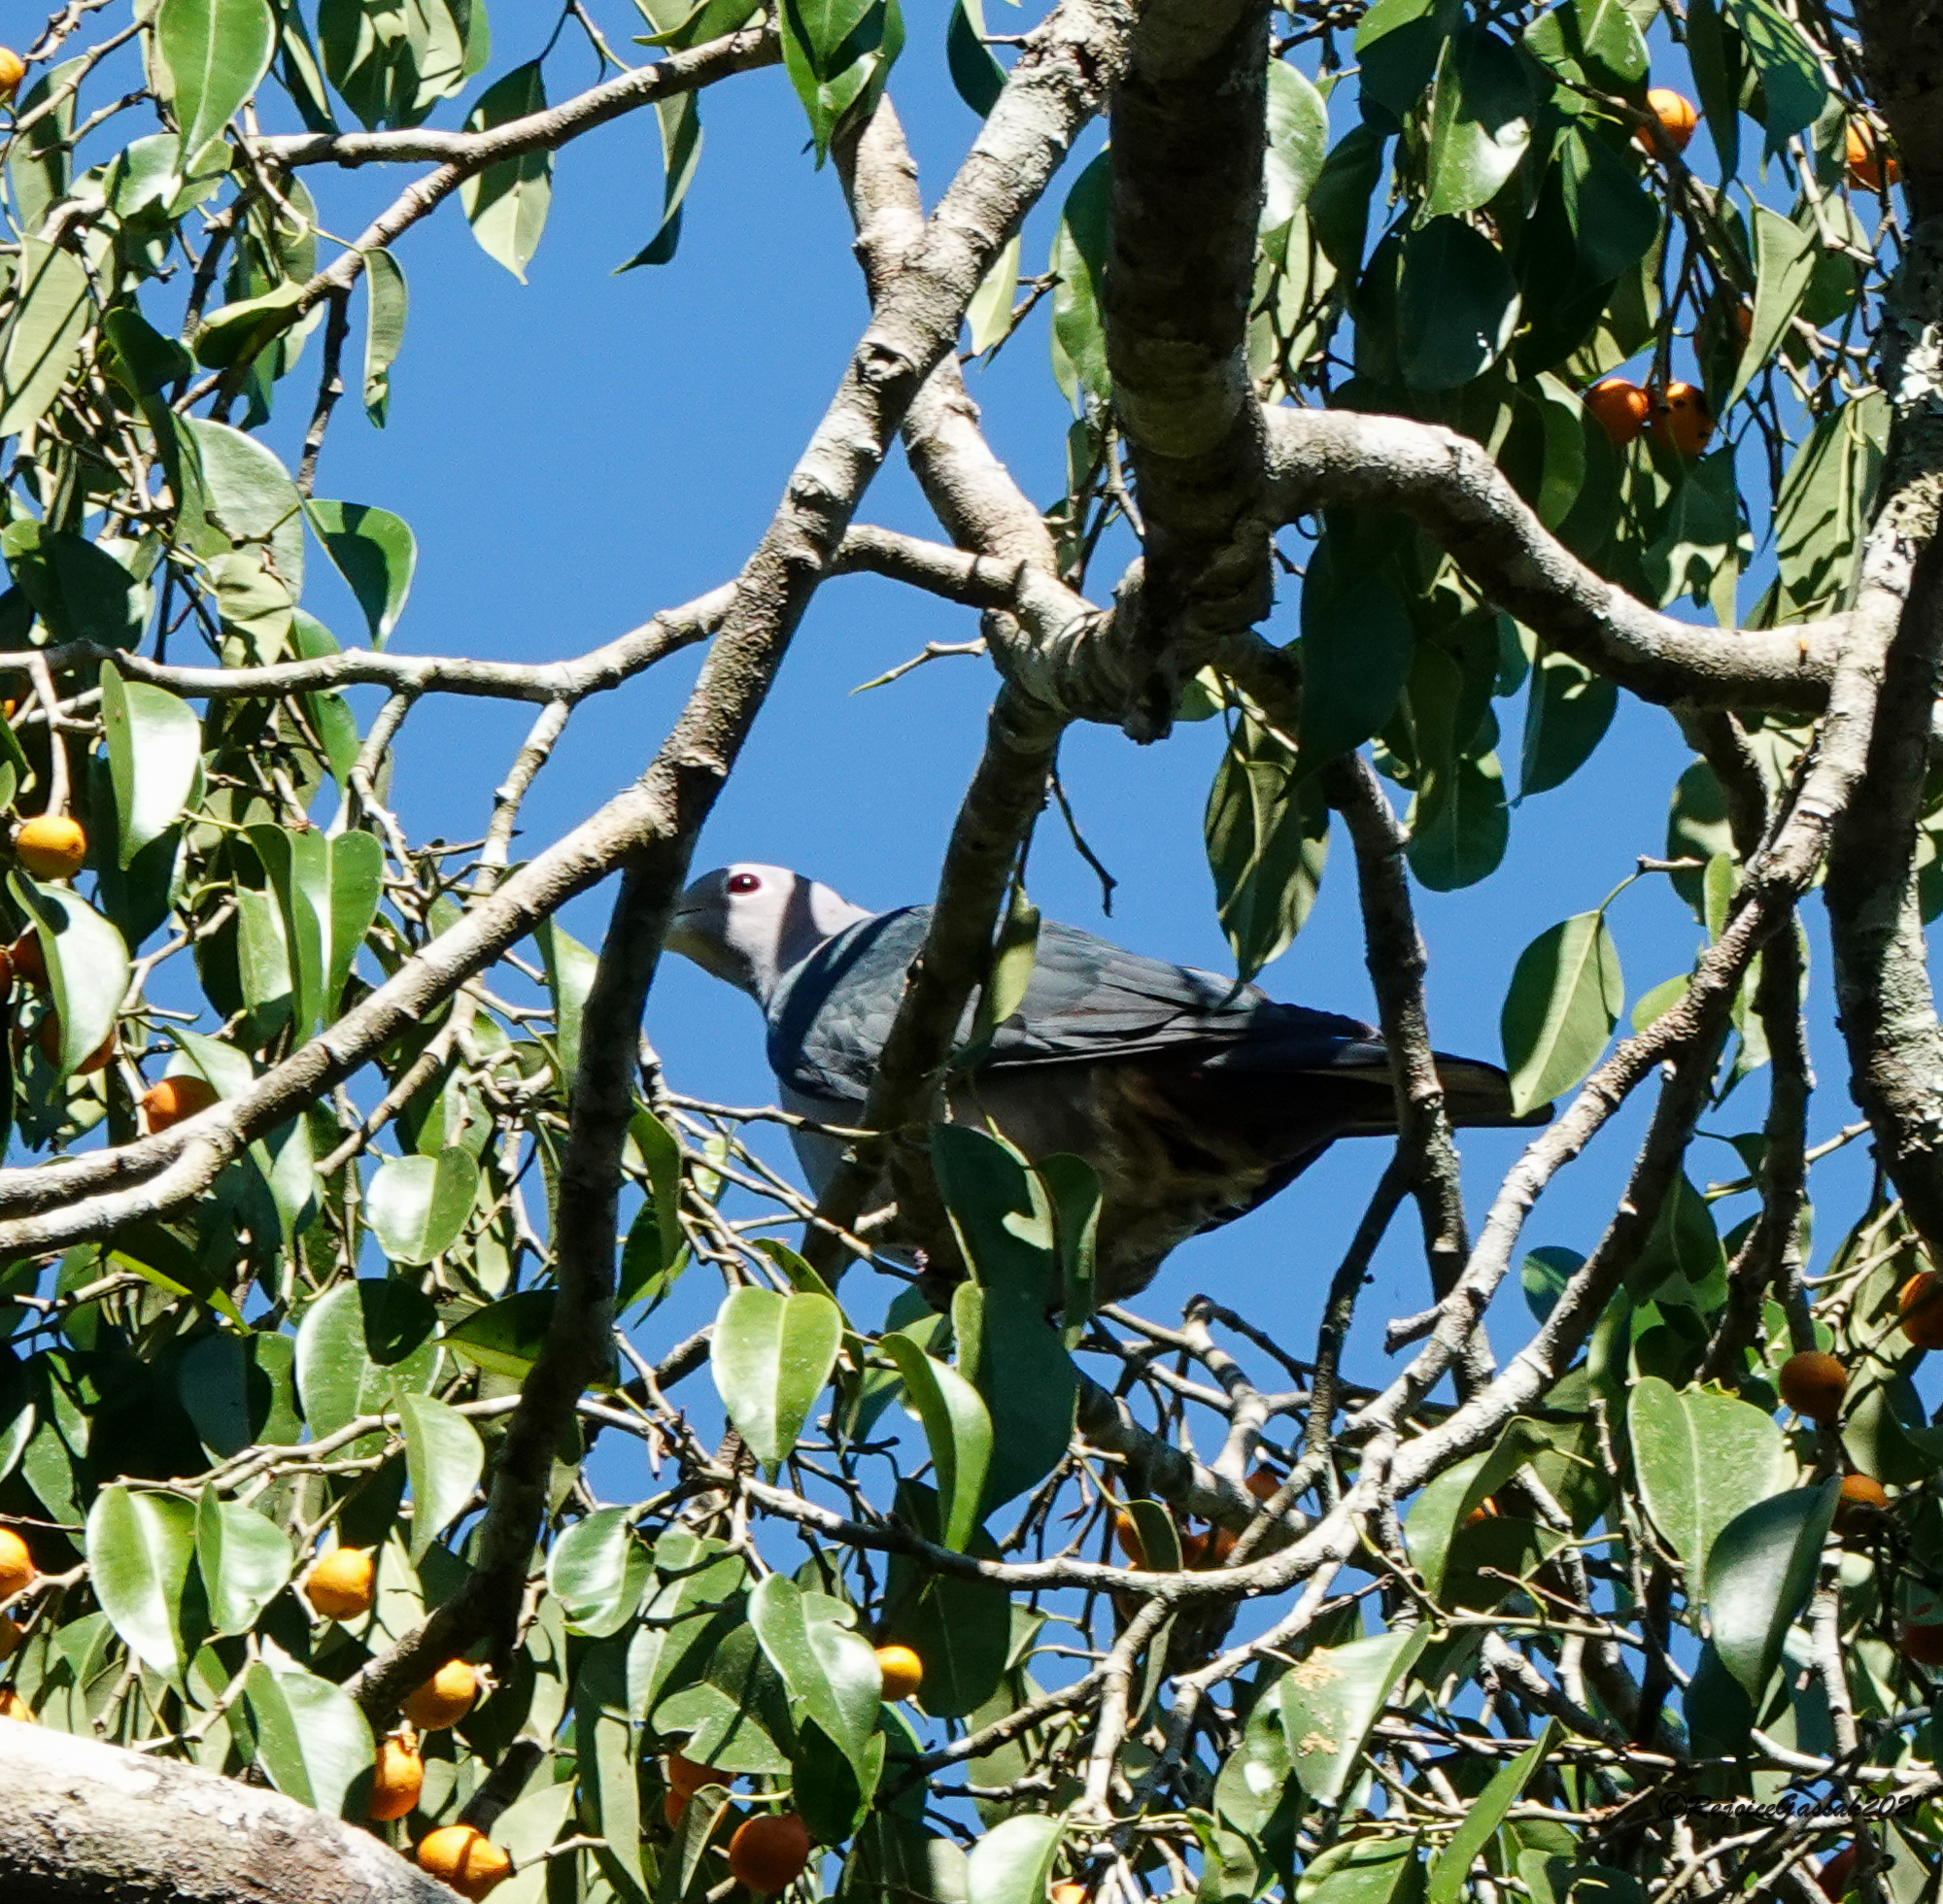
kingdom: Animalia
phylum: Chordata
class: Aves
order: Columbiformes
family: Columbidae
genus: Ducula
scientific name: Ducula aenea
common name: Green imperial pigeon
